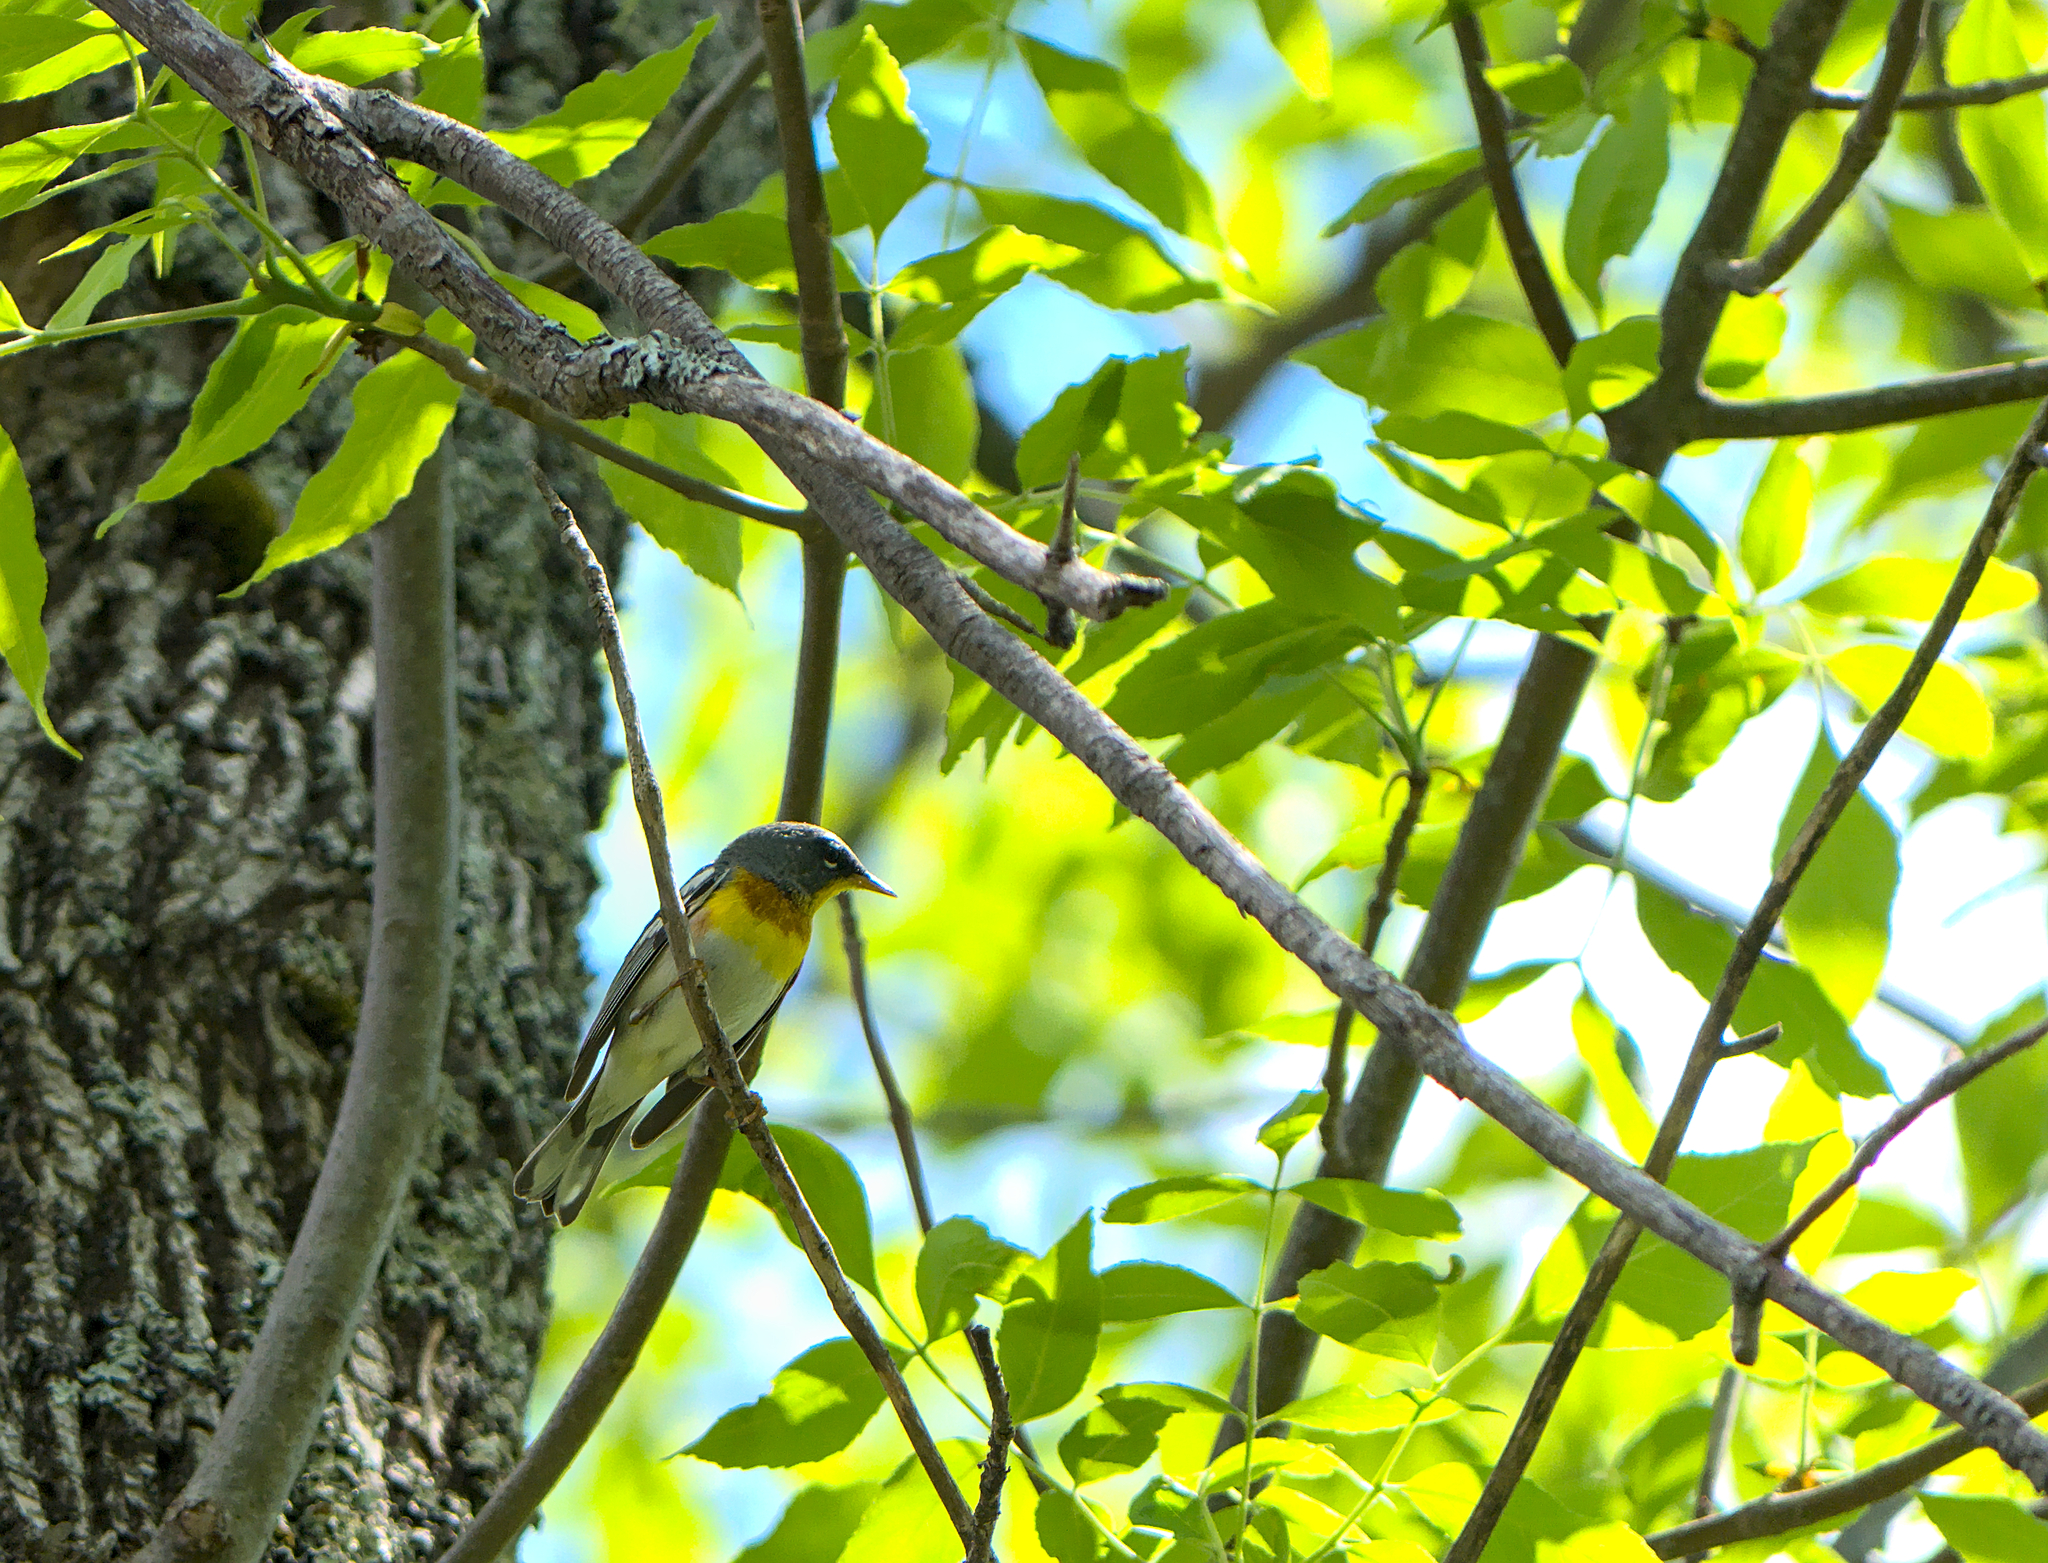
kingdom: Animalia
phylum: Chordata
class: Aves
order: Passeriformes
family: Parulidae
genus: Setophaga
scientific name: Setophaga americana
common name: Northern parula
